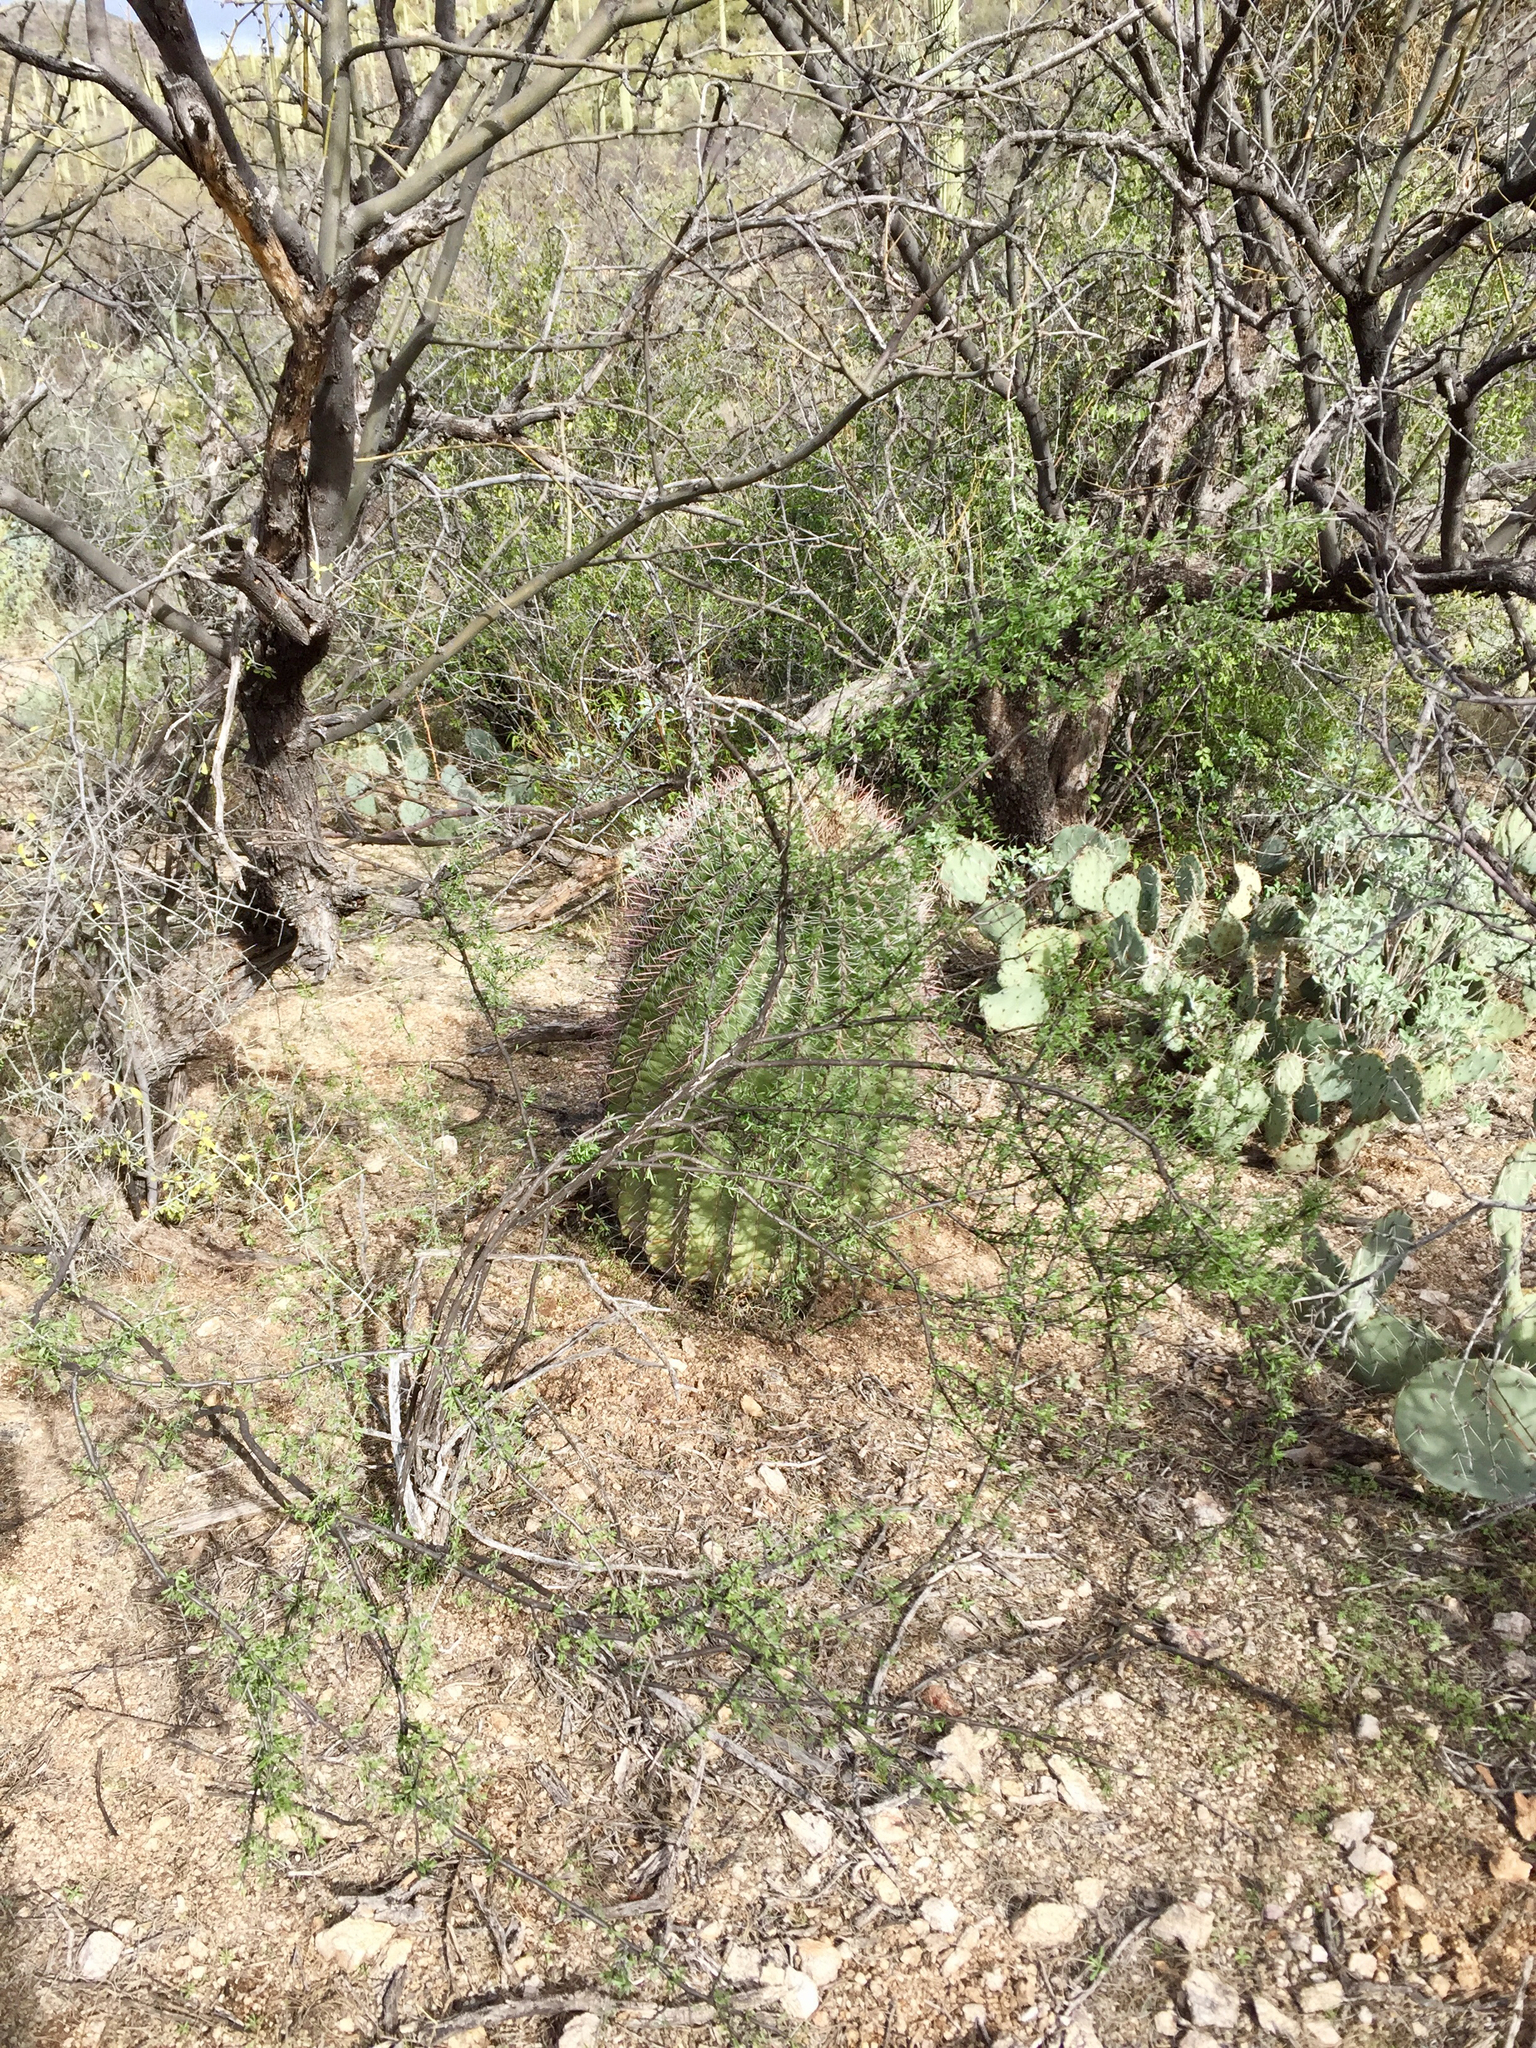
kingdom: Plantae
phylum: Tracheophyta
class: Magnoliopsida
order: Caryophyllales
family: Cactaceae
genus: Ferocactus
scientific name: Ferocactus wislizeni
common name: Candy barrel cactus
